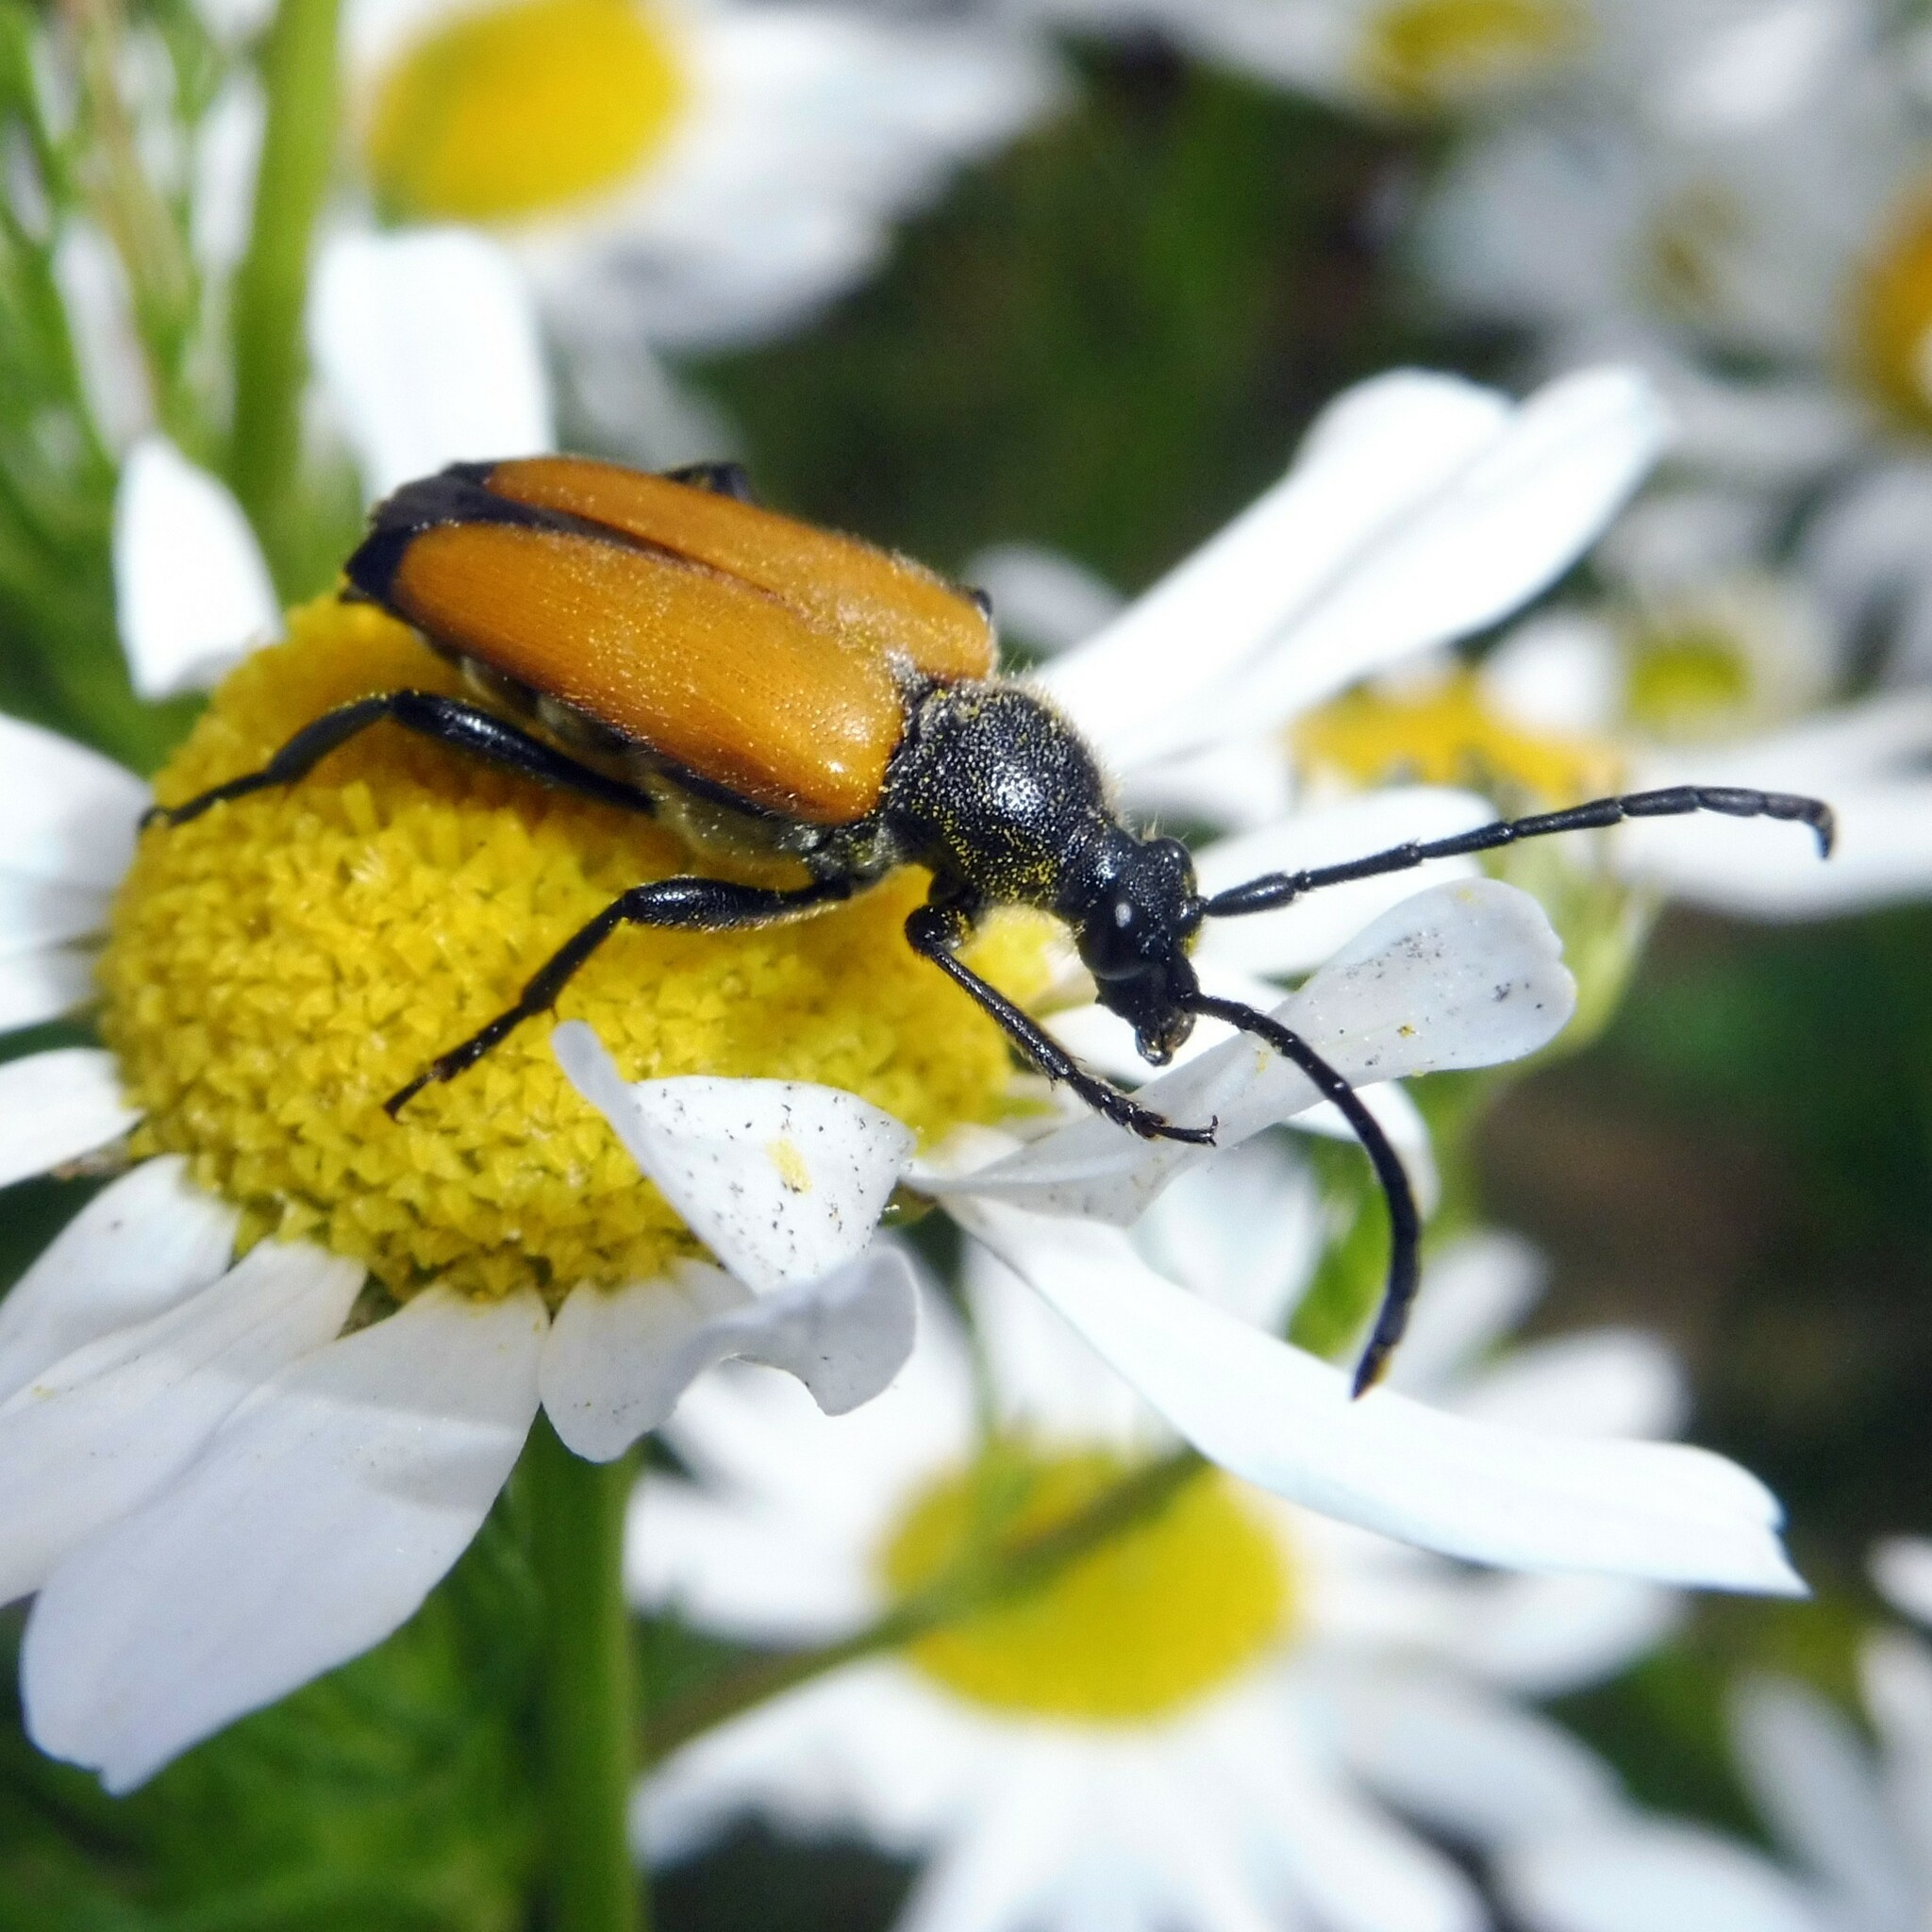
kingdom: Animalia
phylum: Arthropoda
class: Insecta
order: Coleoptera
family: Cerambycidae
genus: Paracorymbia
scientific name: Paracorymbia fulva
